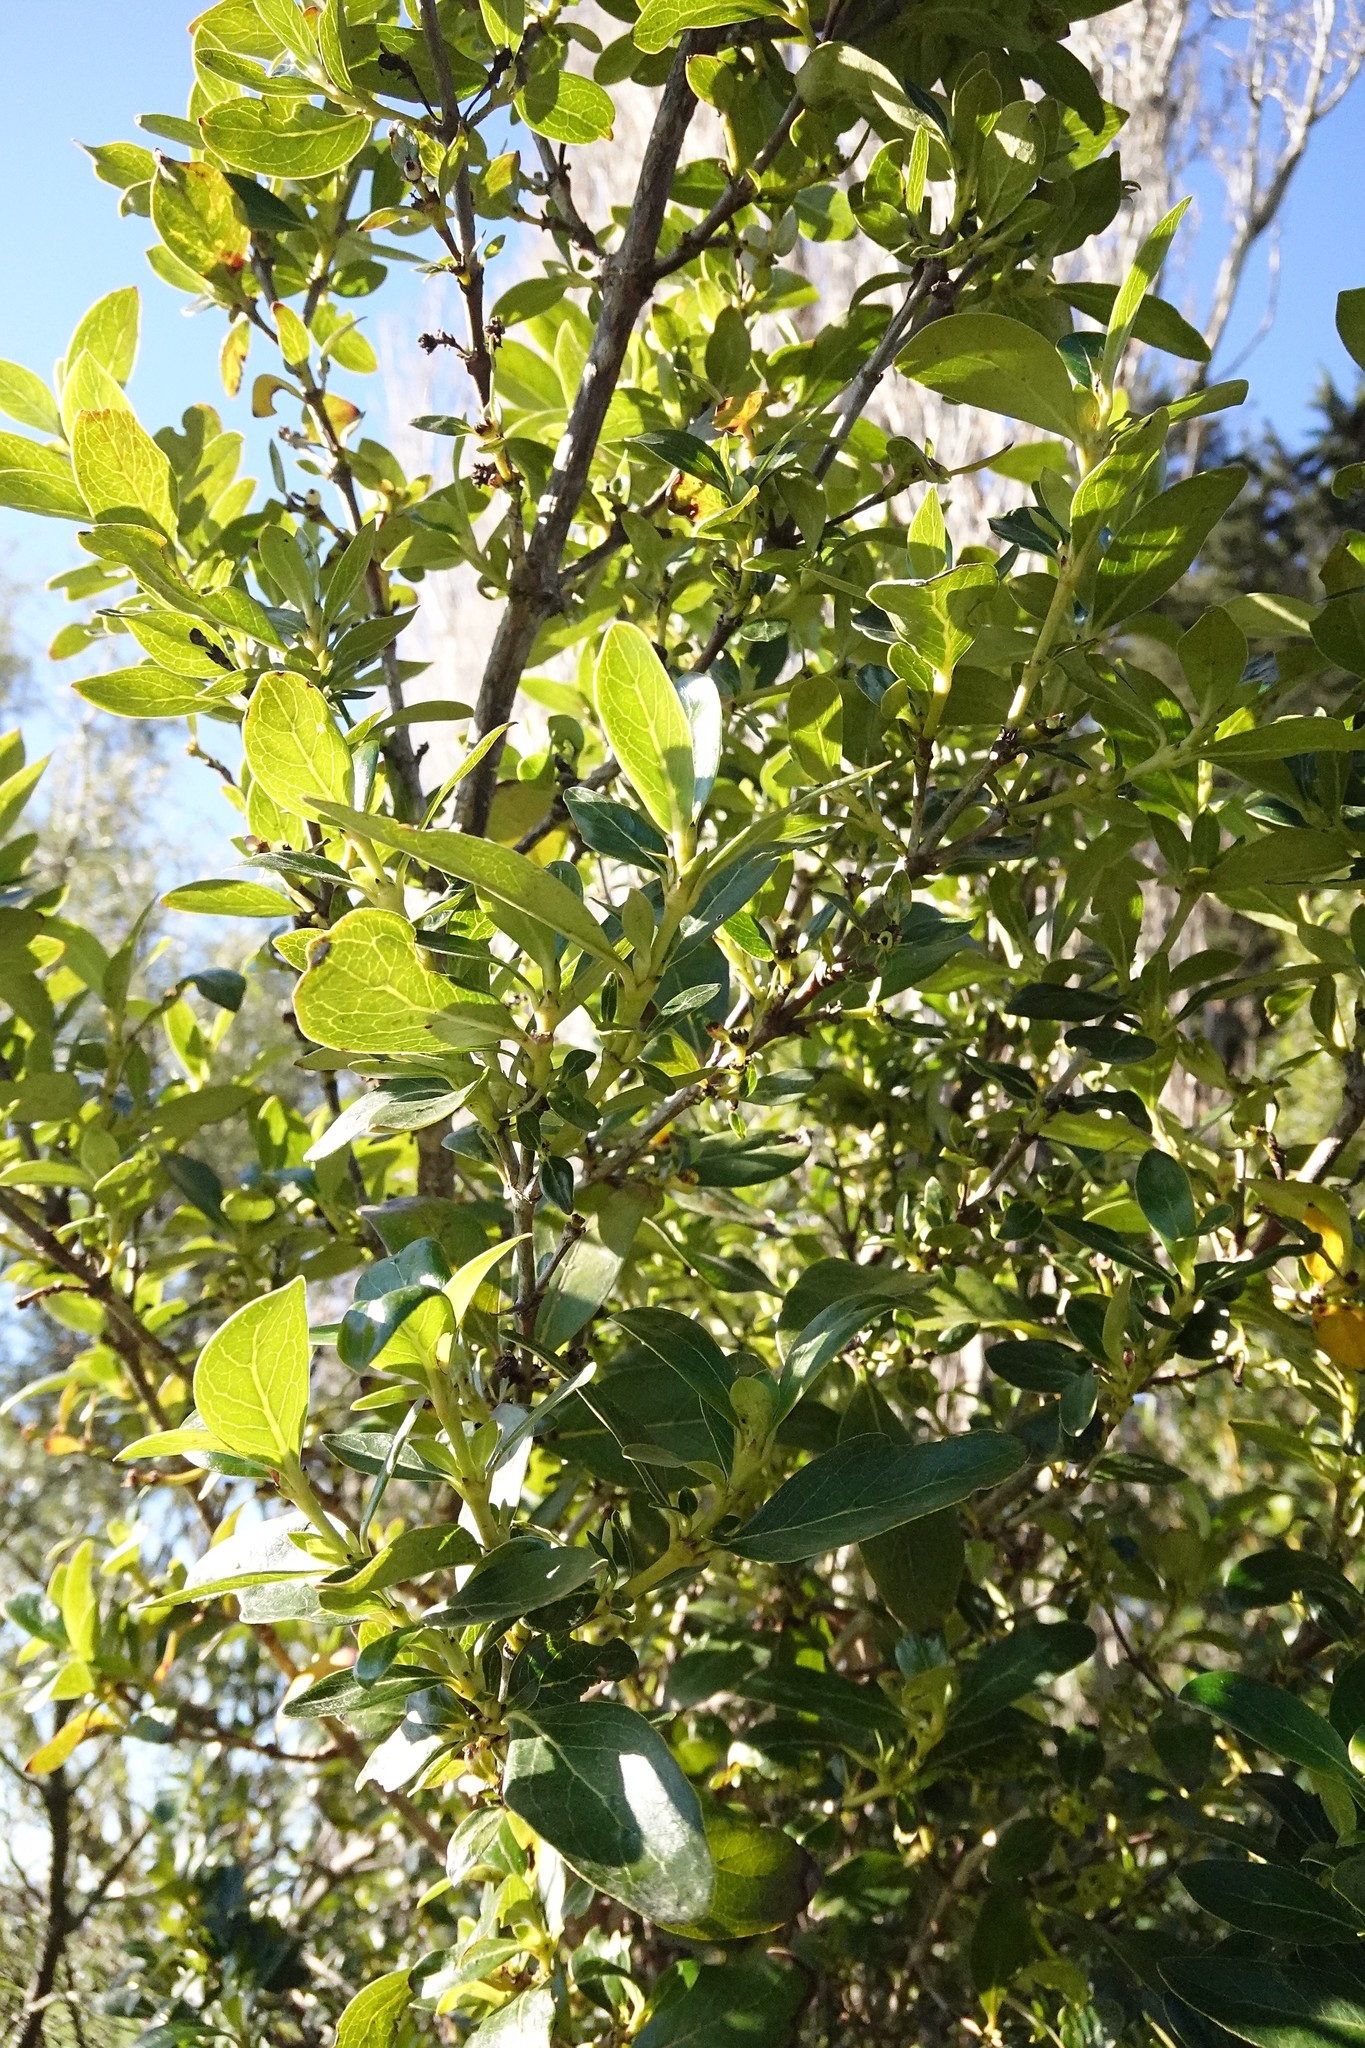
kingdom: Plantae
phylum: Tracheophyta
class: Magnoliopsida
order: Gentianales
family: Rubiaceae
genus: Coprosma
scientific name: Coprosma robusta
